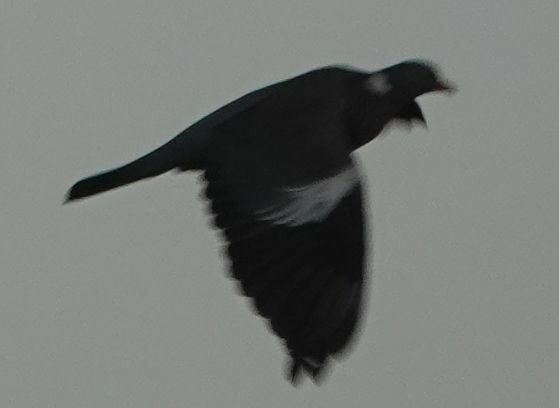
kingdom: Animalia
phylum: Chordata
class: Aves
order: Columbiformes
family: Columbidae
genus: Columba
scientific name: Columba palumbus
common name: Common wood pigeon
